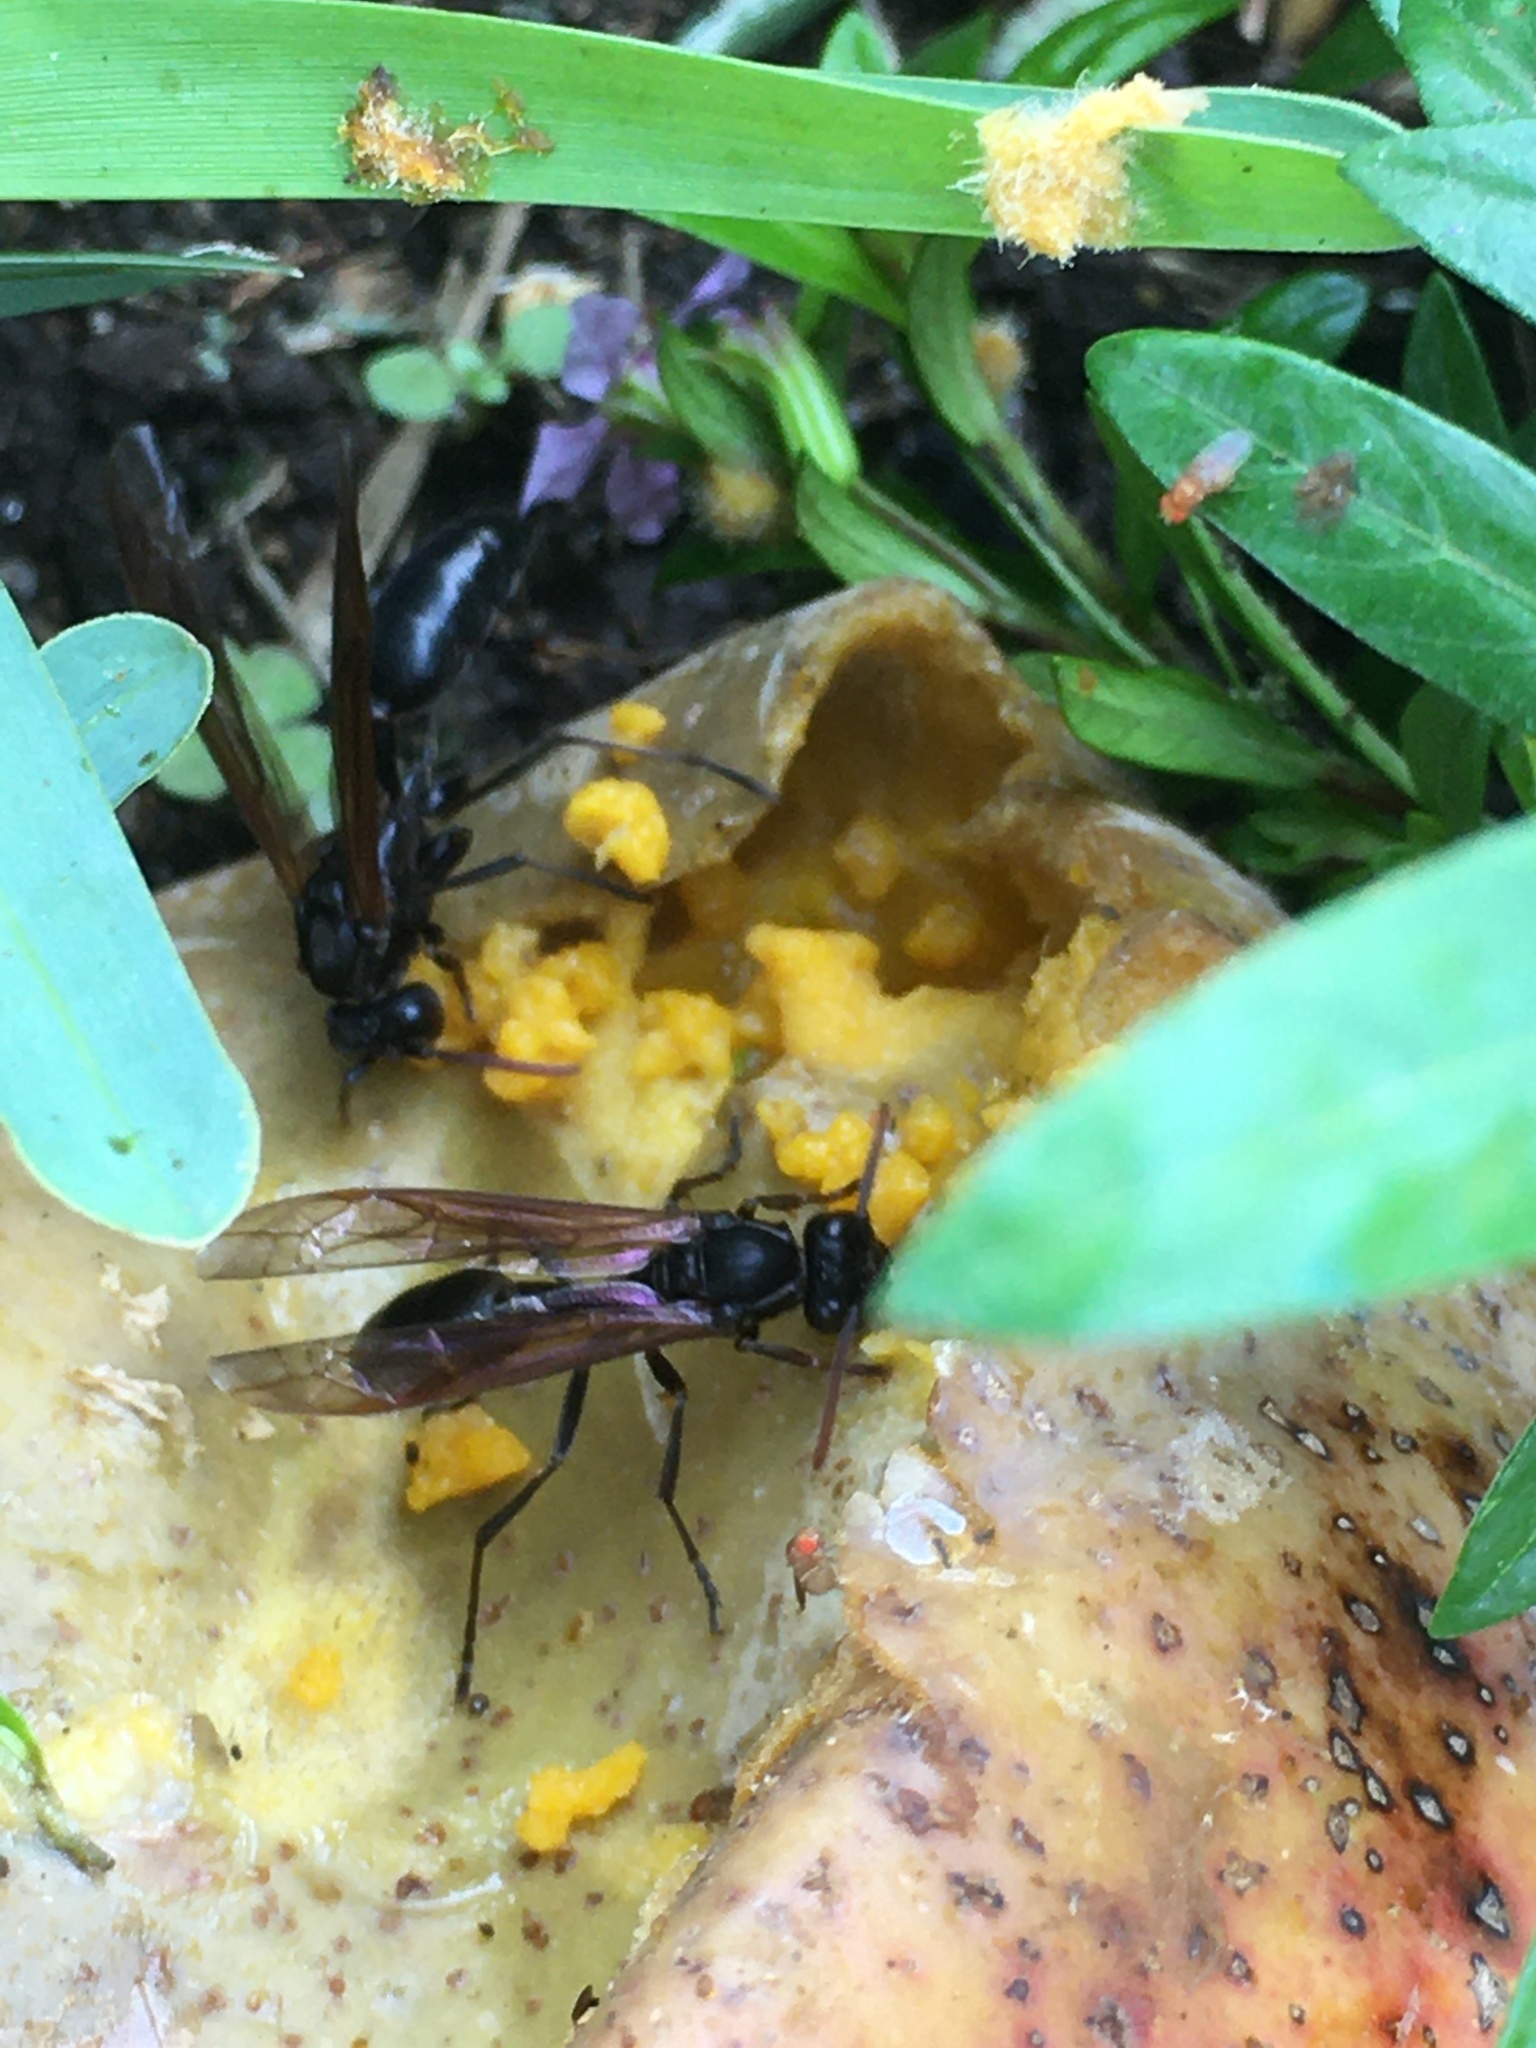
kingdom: Animalia
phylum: Arthropoda
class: Insecta
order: Hymenoptera
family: Vespidae
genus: Agelaia
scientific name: Agelaia panamensis
